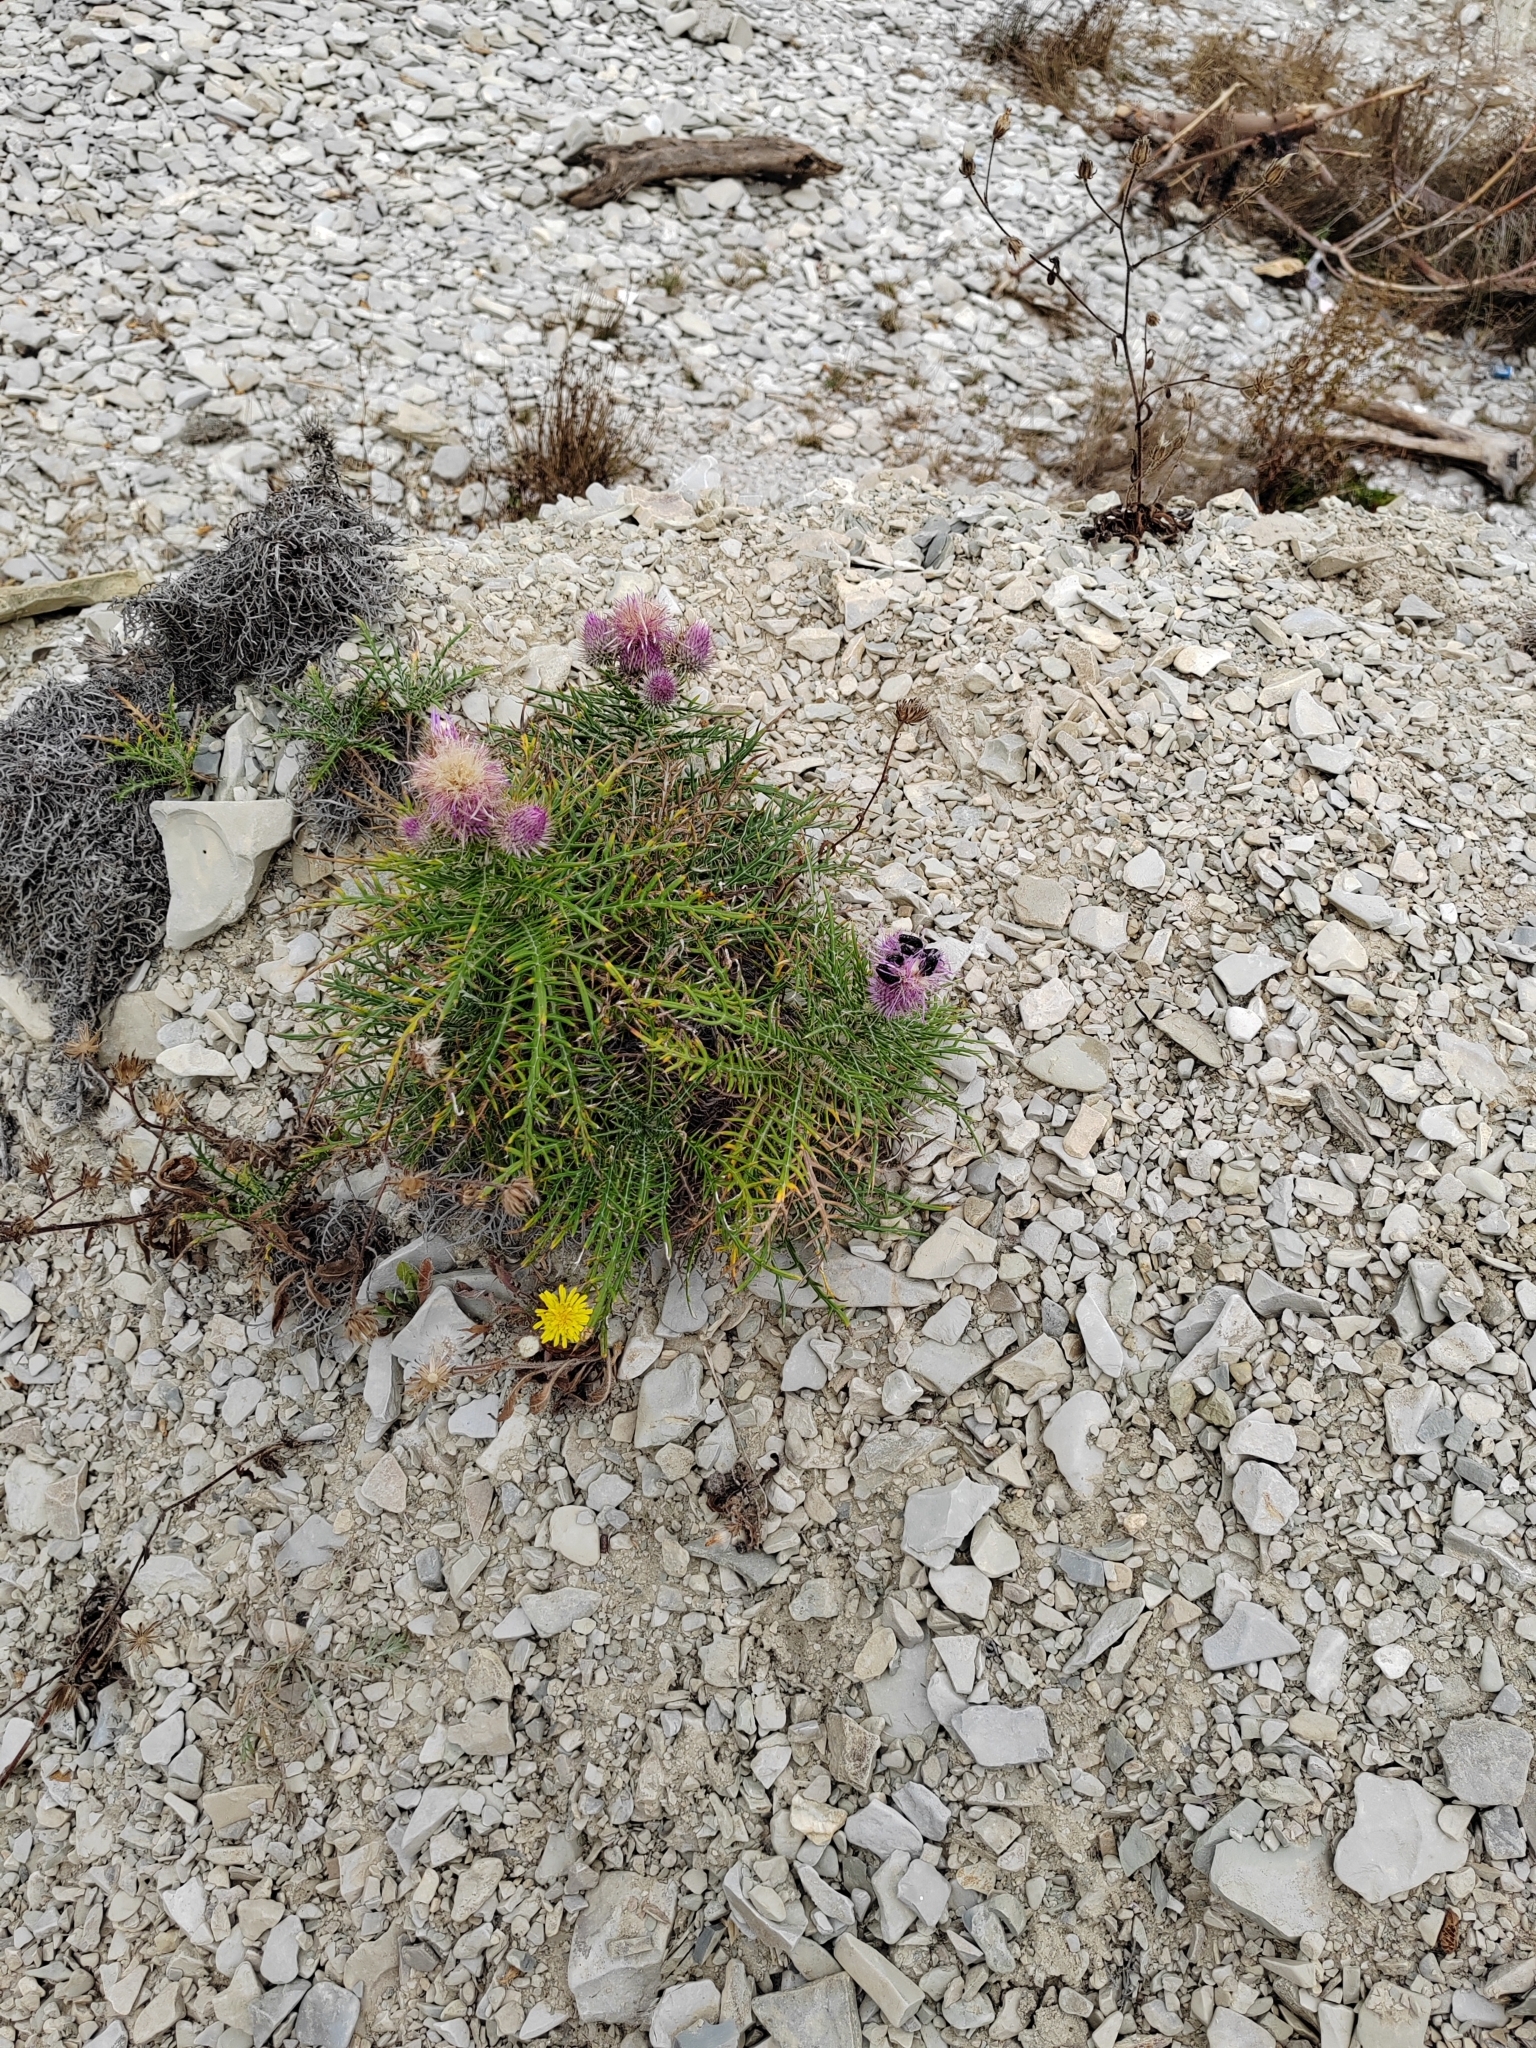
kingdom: Plantae
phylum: Tracheophyta
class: Magnoliopsida
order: Asterales
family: Asteraceae
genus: Ptilostemon
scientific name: Ptilostemon echinocephalus
